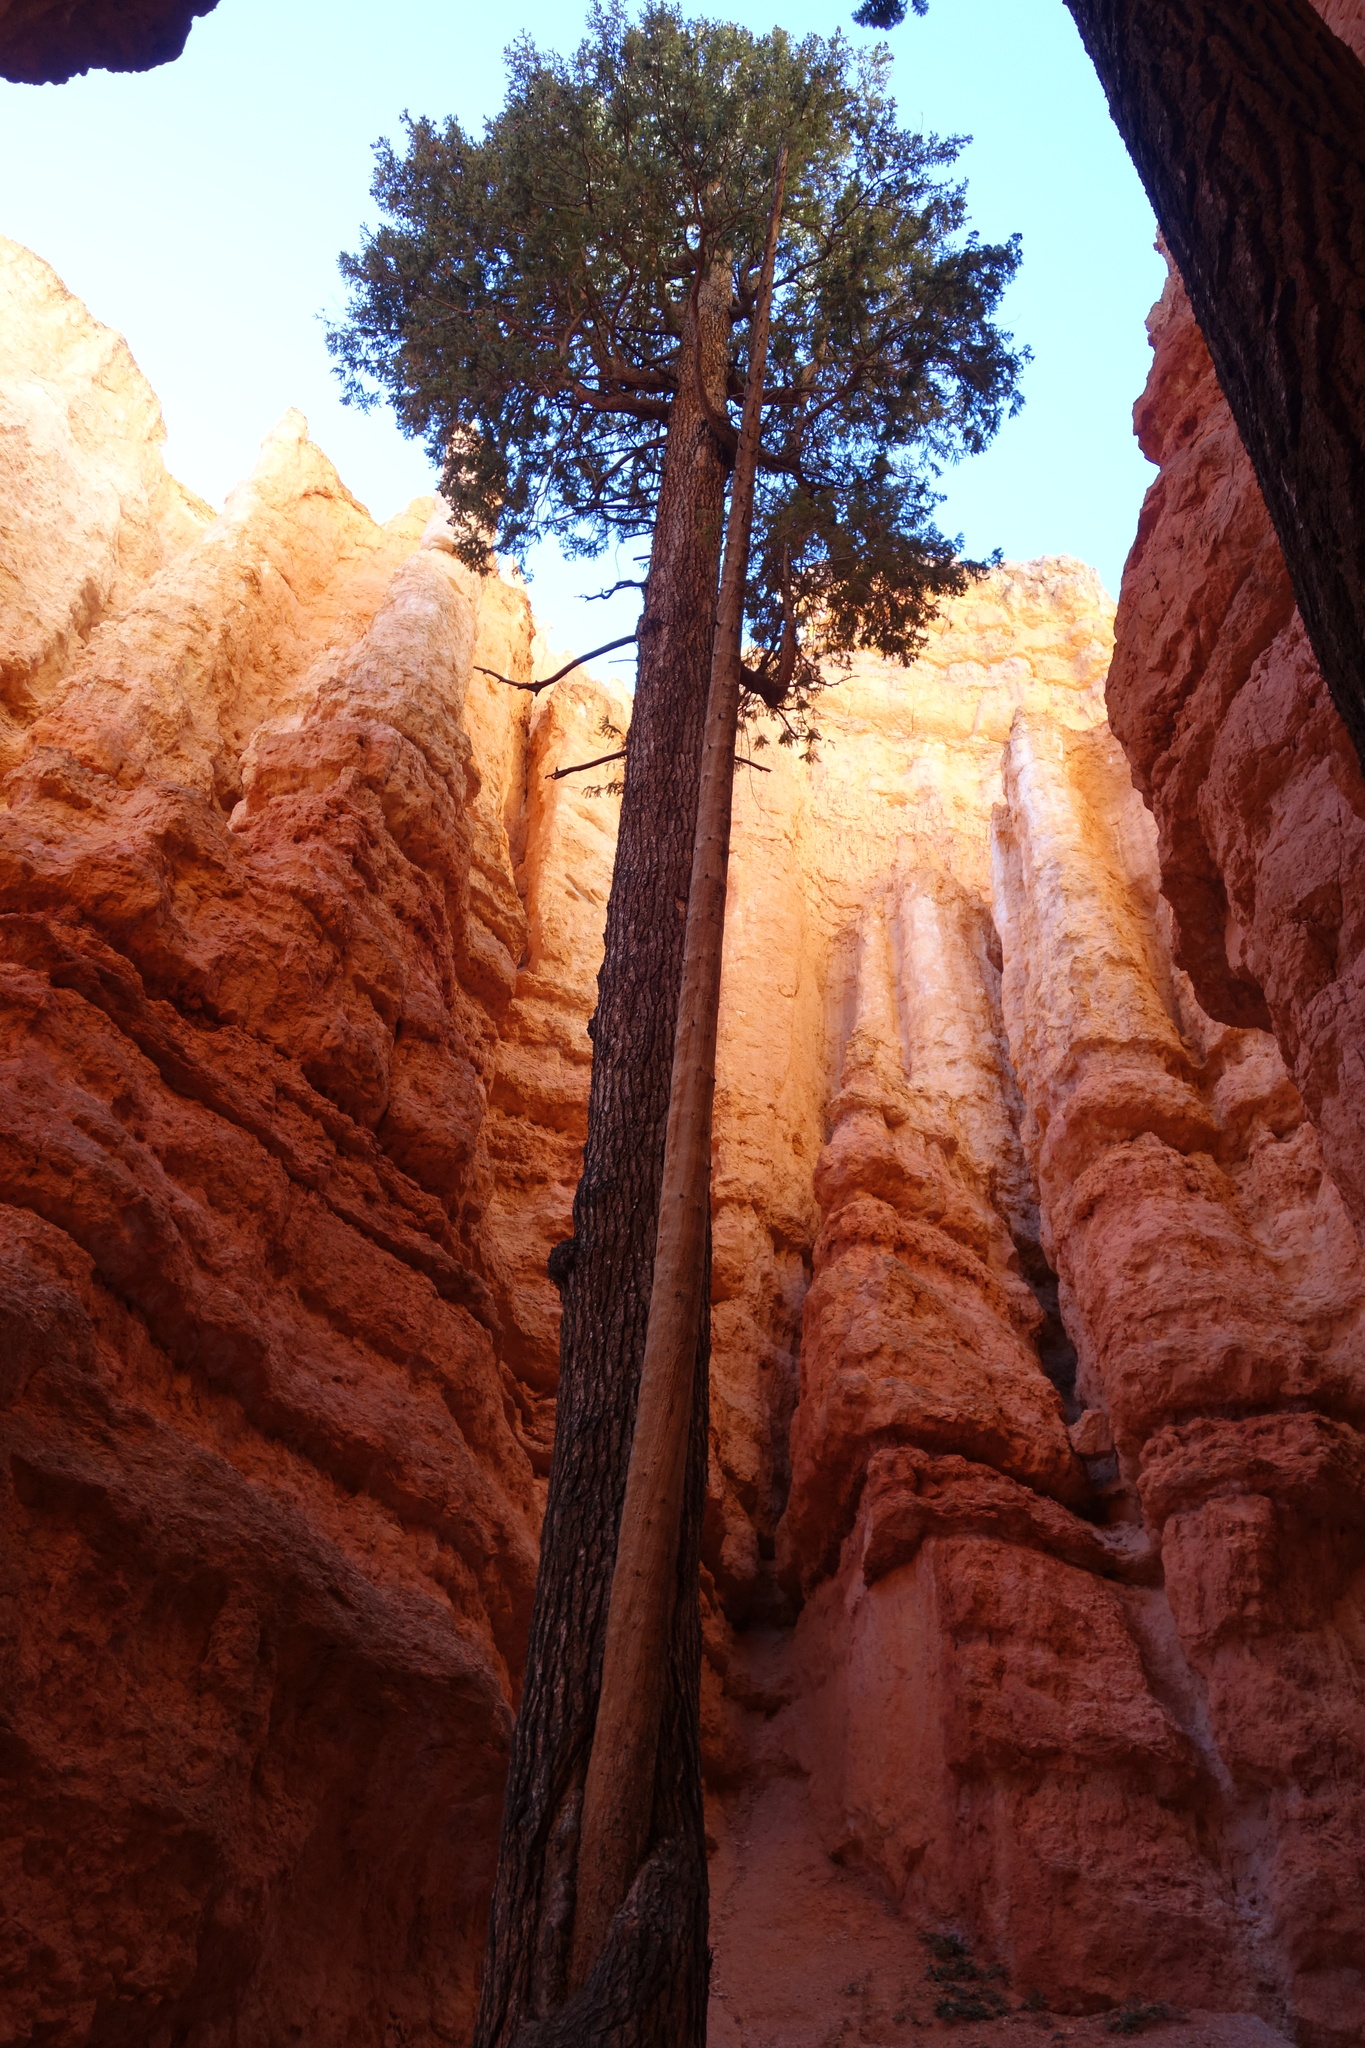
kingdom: Plantae
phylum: Tracheophyta
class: Pinopsida
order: Pinales
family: Pinaceae
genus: Pseudotsuga
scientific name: Pseudotsuga menziesii
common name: Douglas fir
